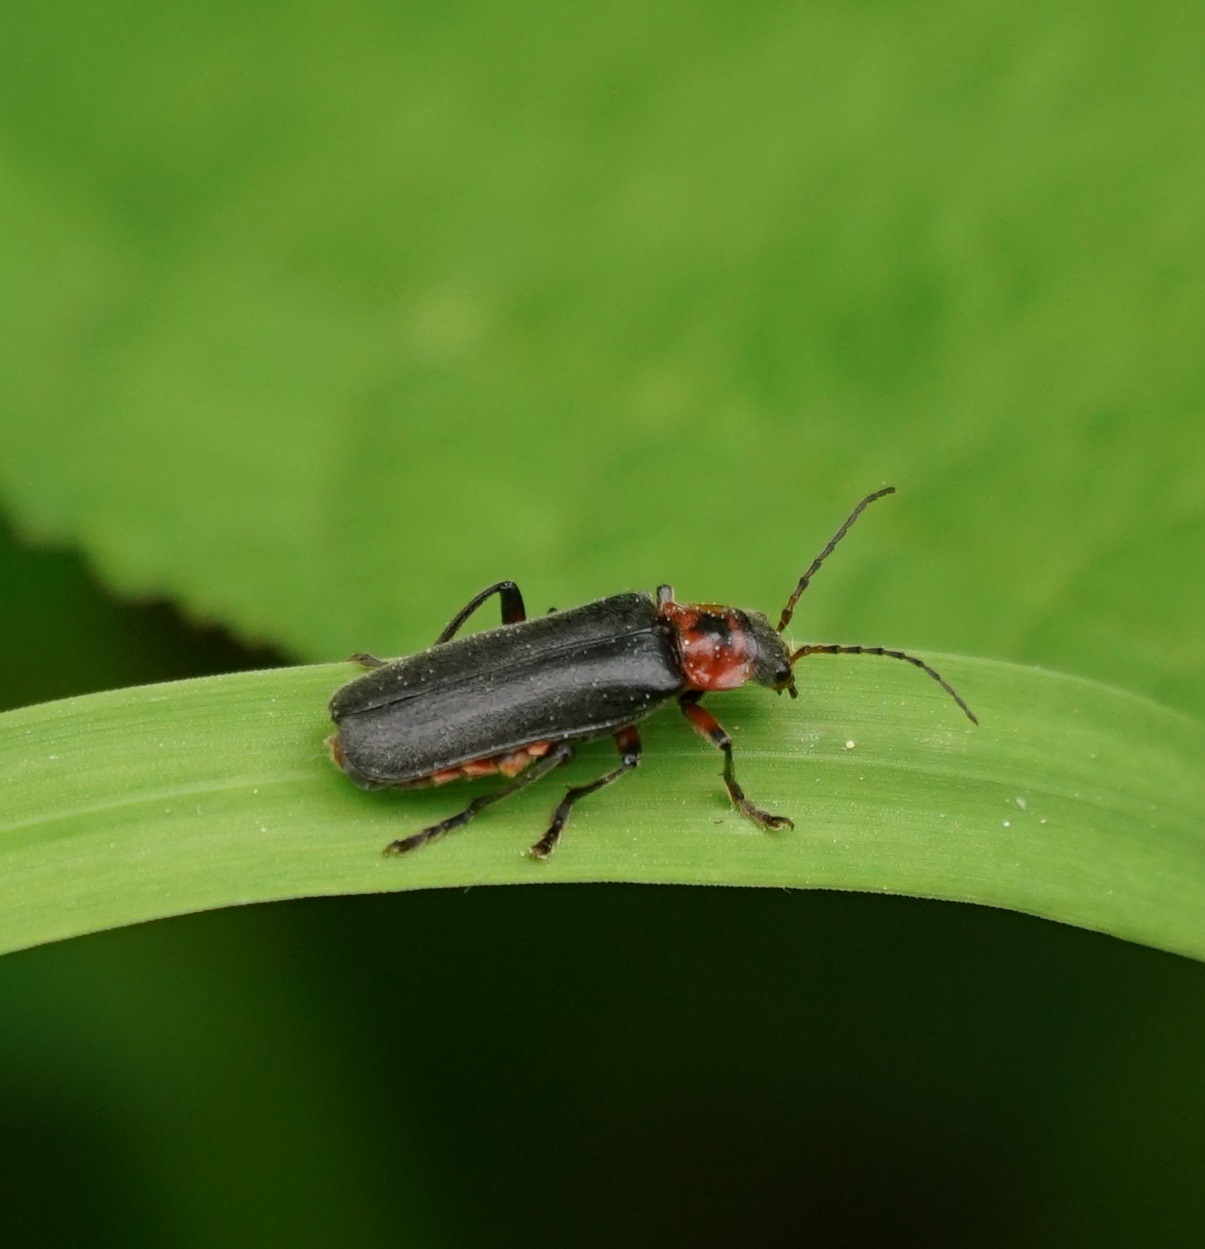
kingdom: Animalia
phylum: Arthropoda
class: Insecta
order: Coleoptera
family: Cantharidae
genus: Cantharis
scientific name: Cantharis rustica
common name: Soldier beetle
